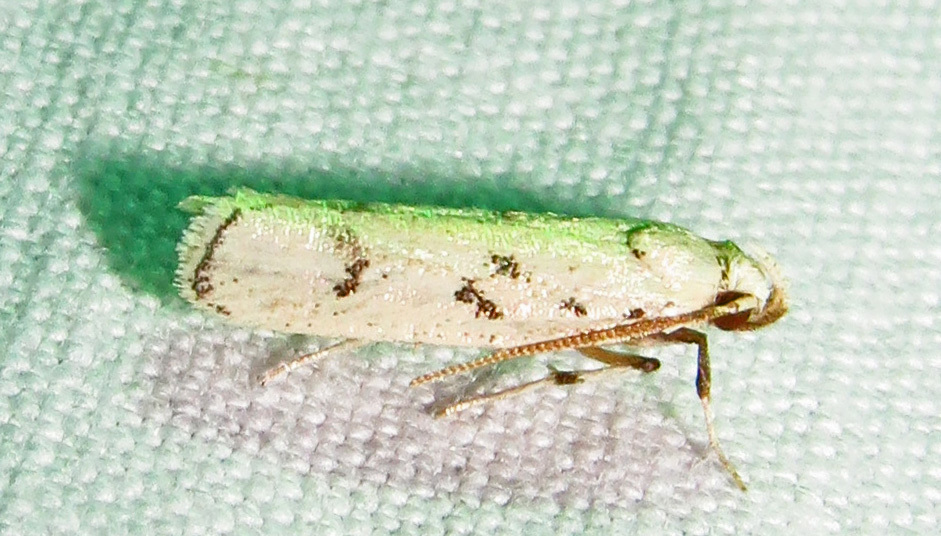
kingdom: Animalia
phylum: Arthropoda
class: Insecta
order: Lepidoptera
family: Autostichidae
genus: Glyphidocera
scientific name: Glyphidocera lactiflosella
